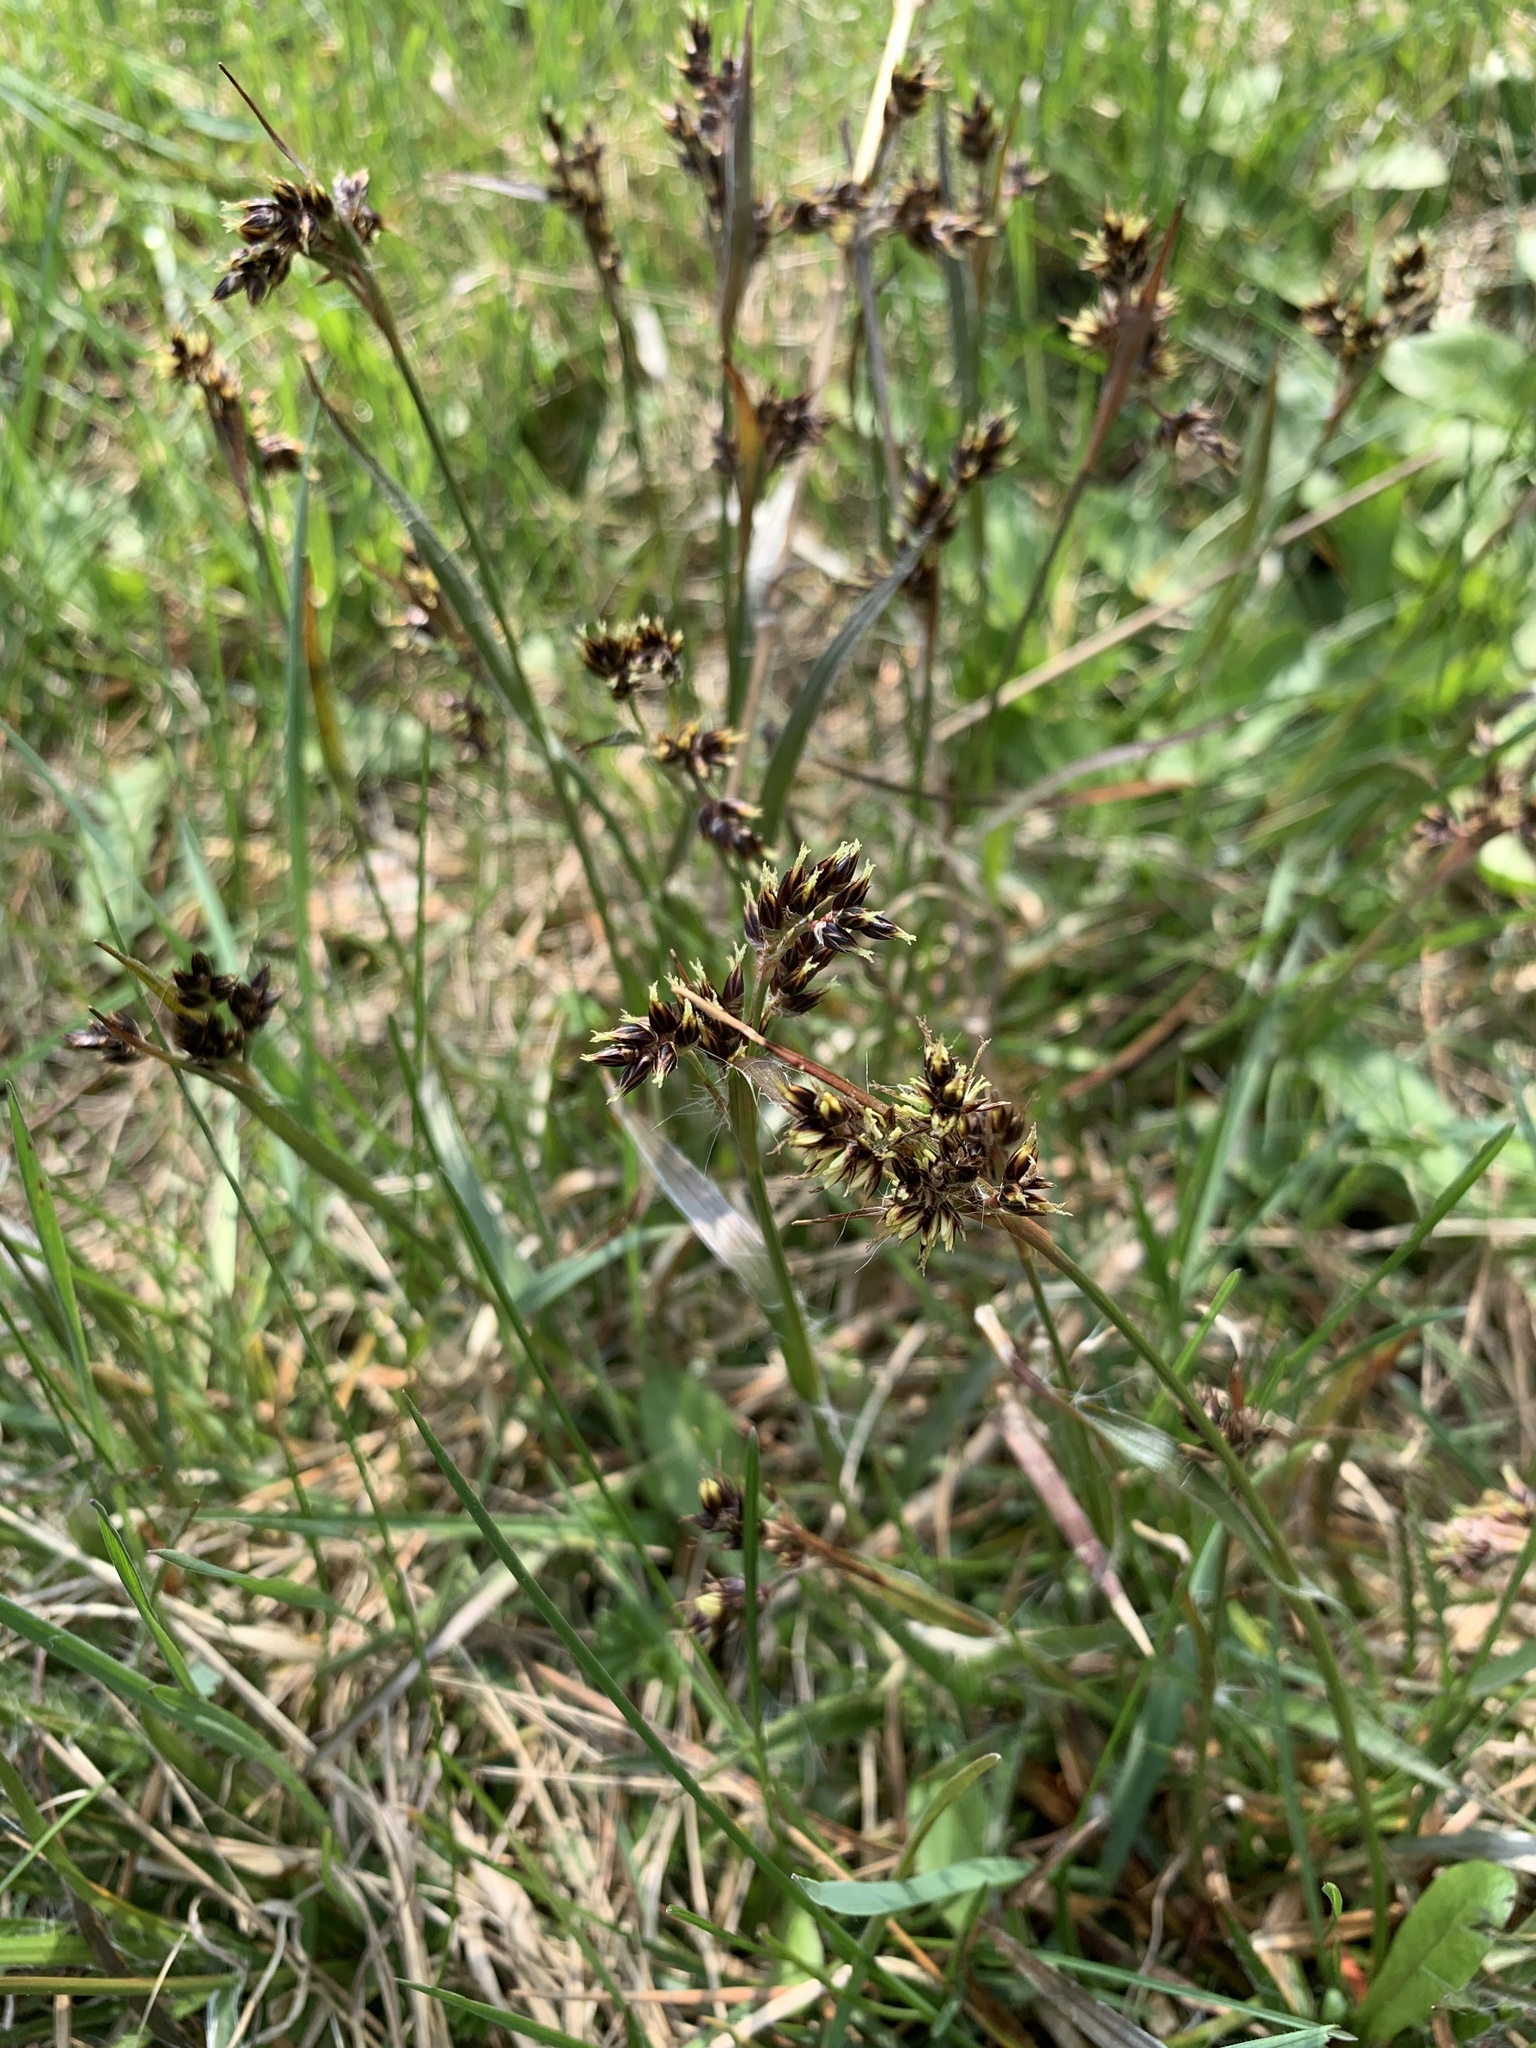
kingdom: Plantae
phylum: Tracheophyta
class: Liliopsida
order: Poales
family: Juncaceae
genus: Luzula
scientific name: Luzula campestris
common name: Field wood-rush
